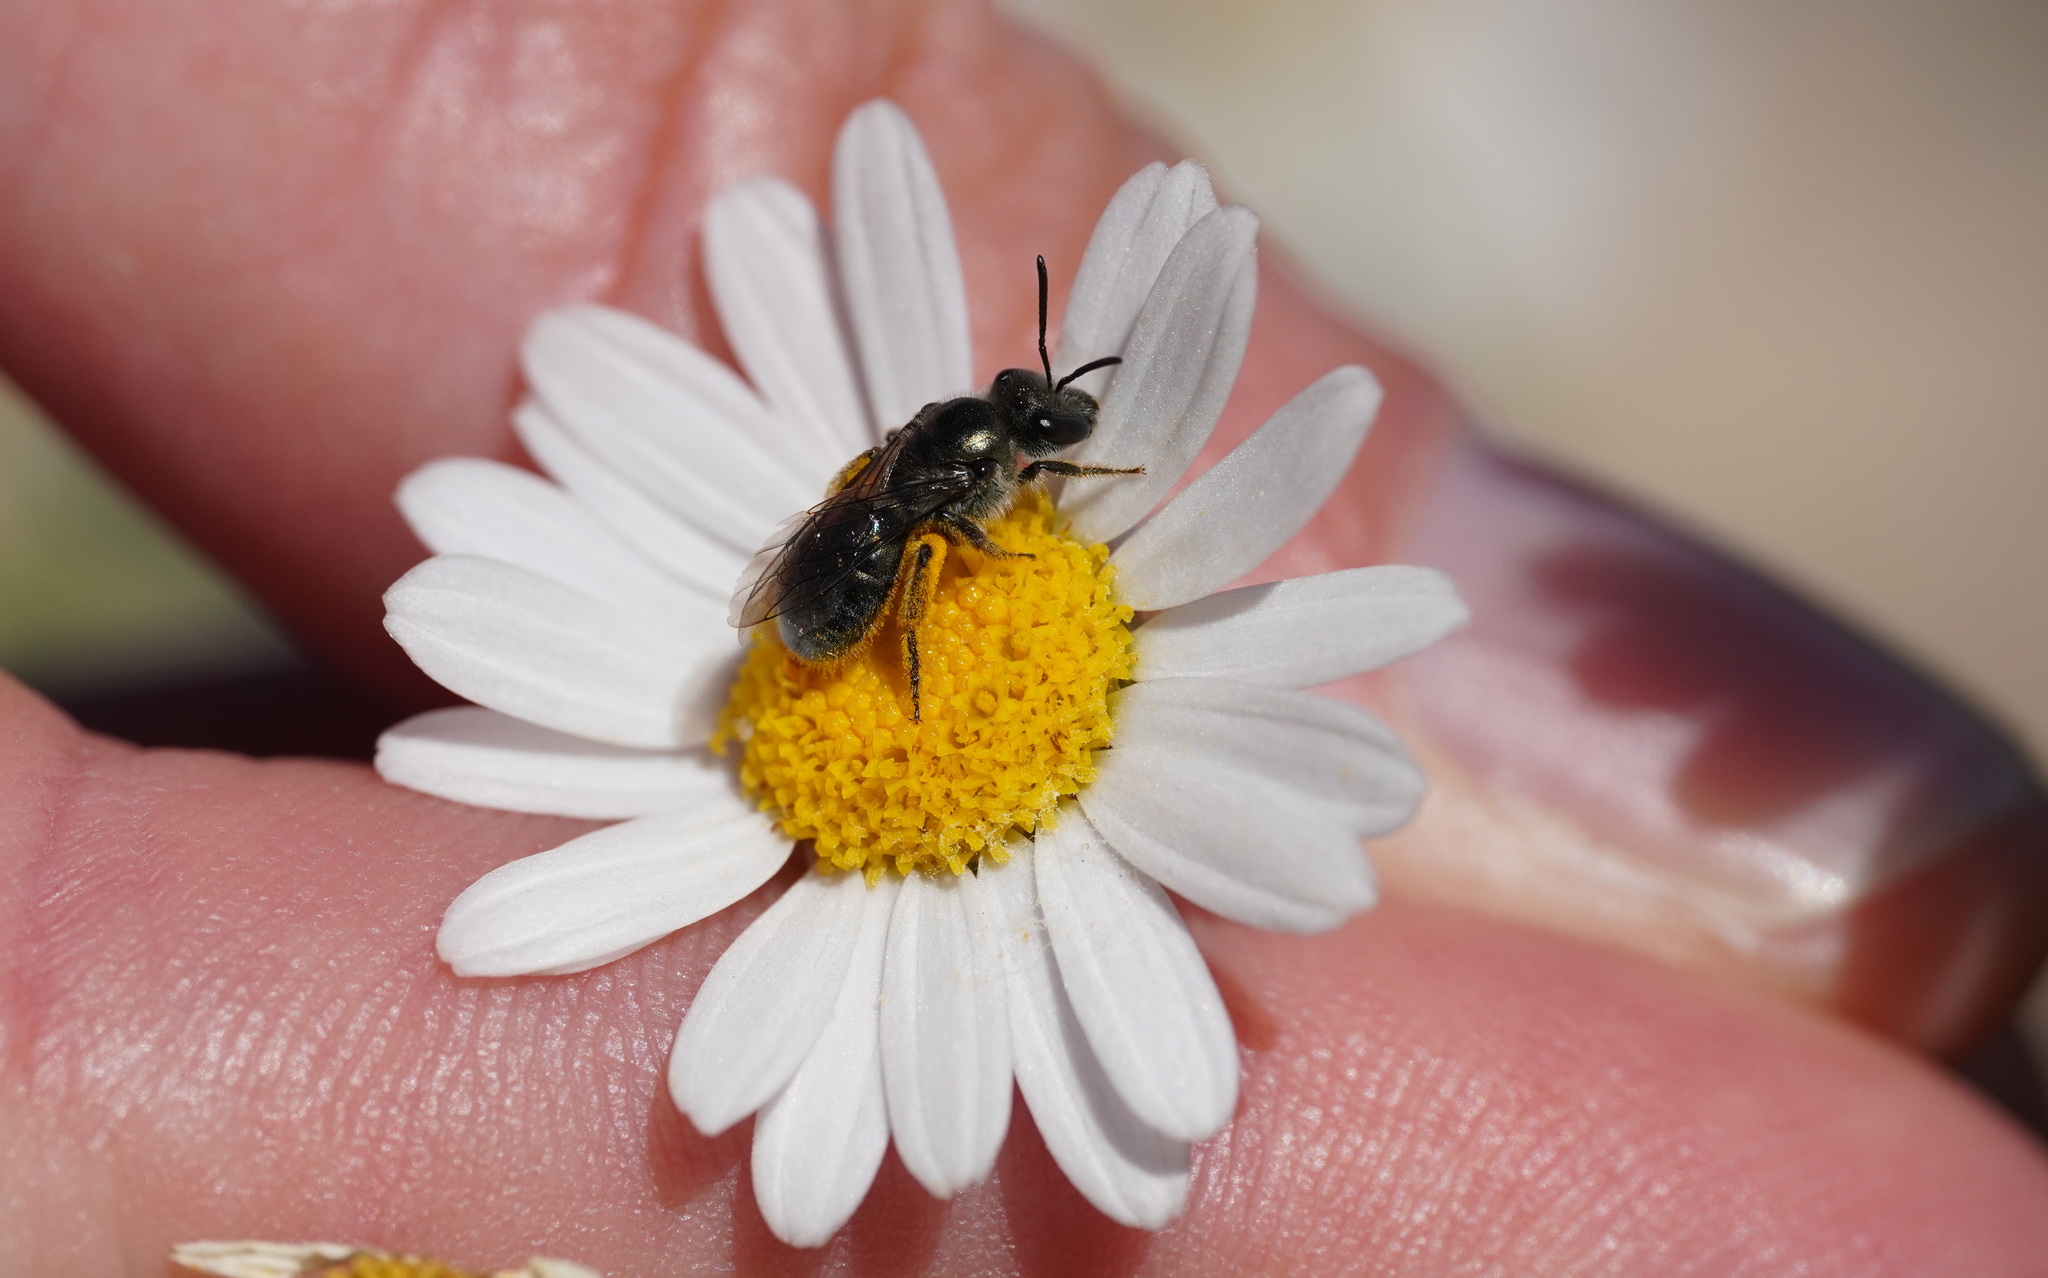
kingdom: Animalia
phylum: Arthropoda
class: Insecta
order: Hymenoptera
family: Halictidae
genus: Lasioglossum
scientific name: Lasioglossum viride
